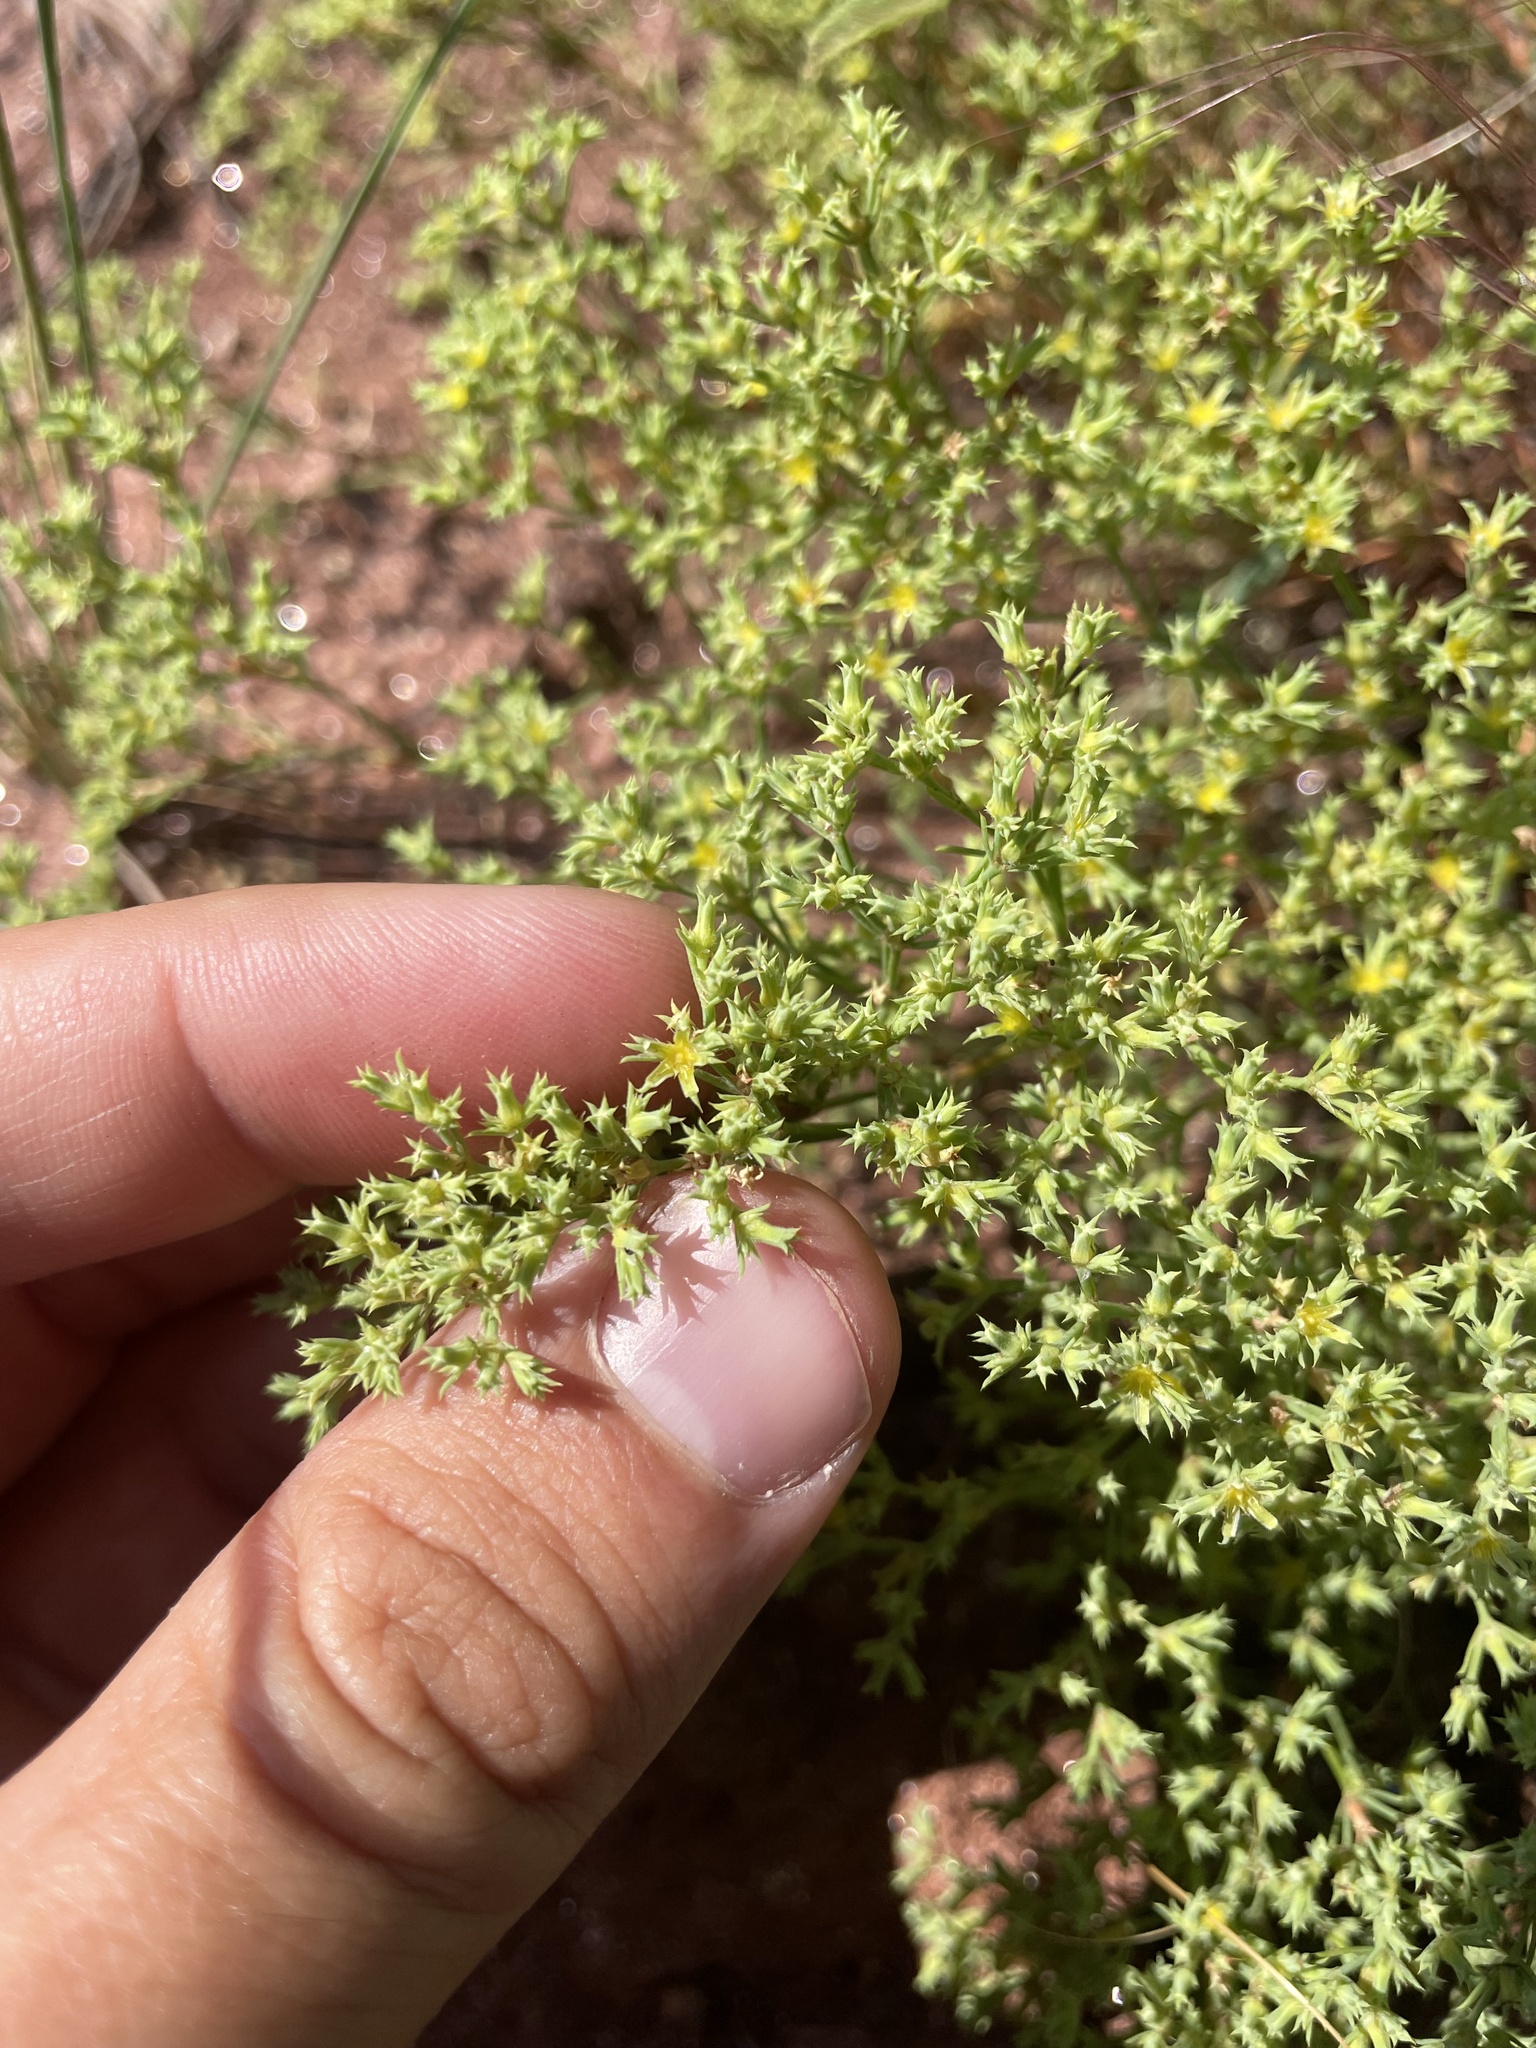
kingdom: Plantae
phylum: Tracheophyta
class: Magnoliopsida
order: Caryophyllales
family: Caryophyllaceae
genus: Paronychia
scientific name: Paronychia jamesii
